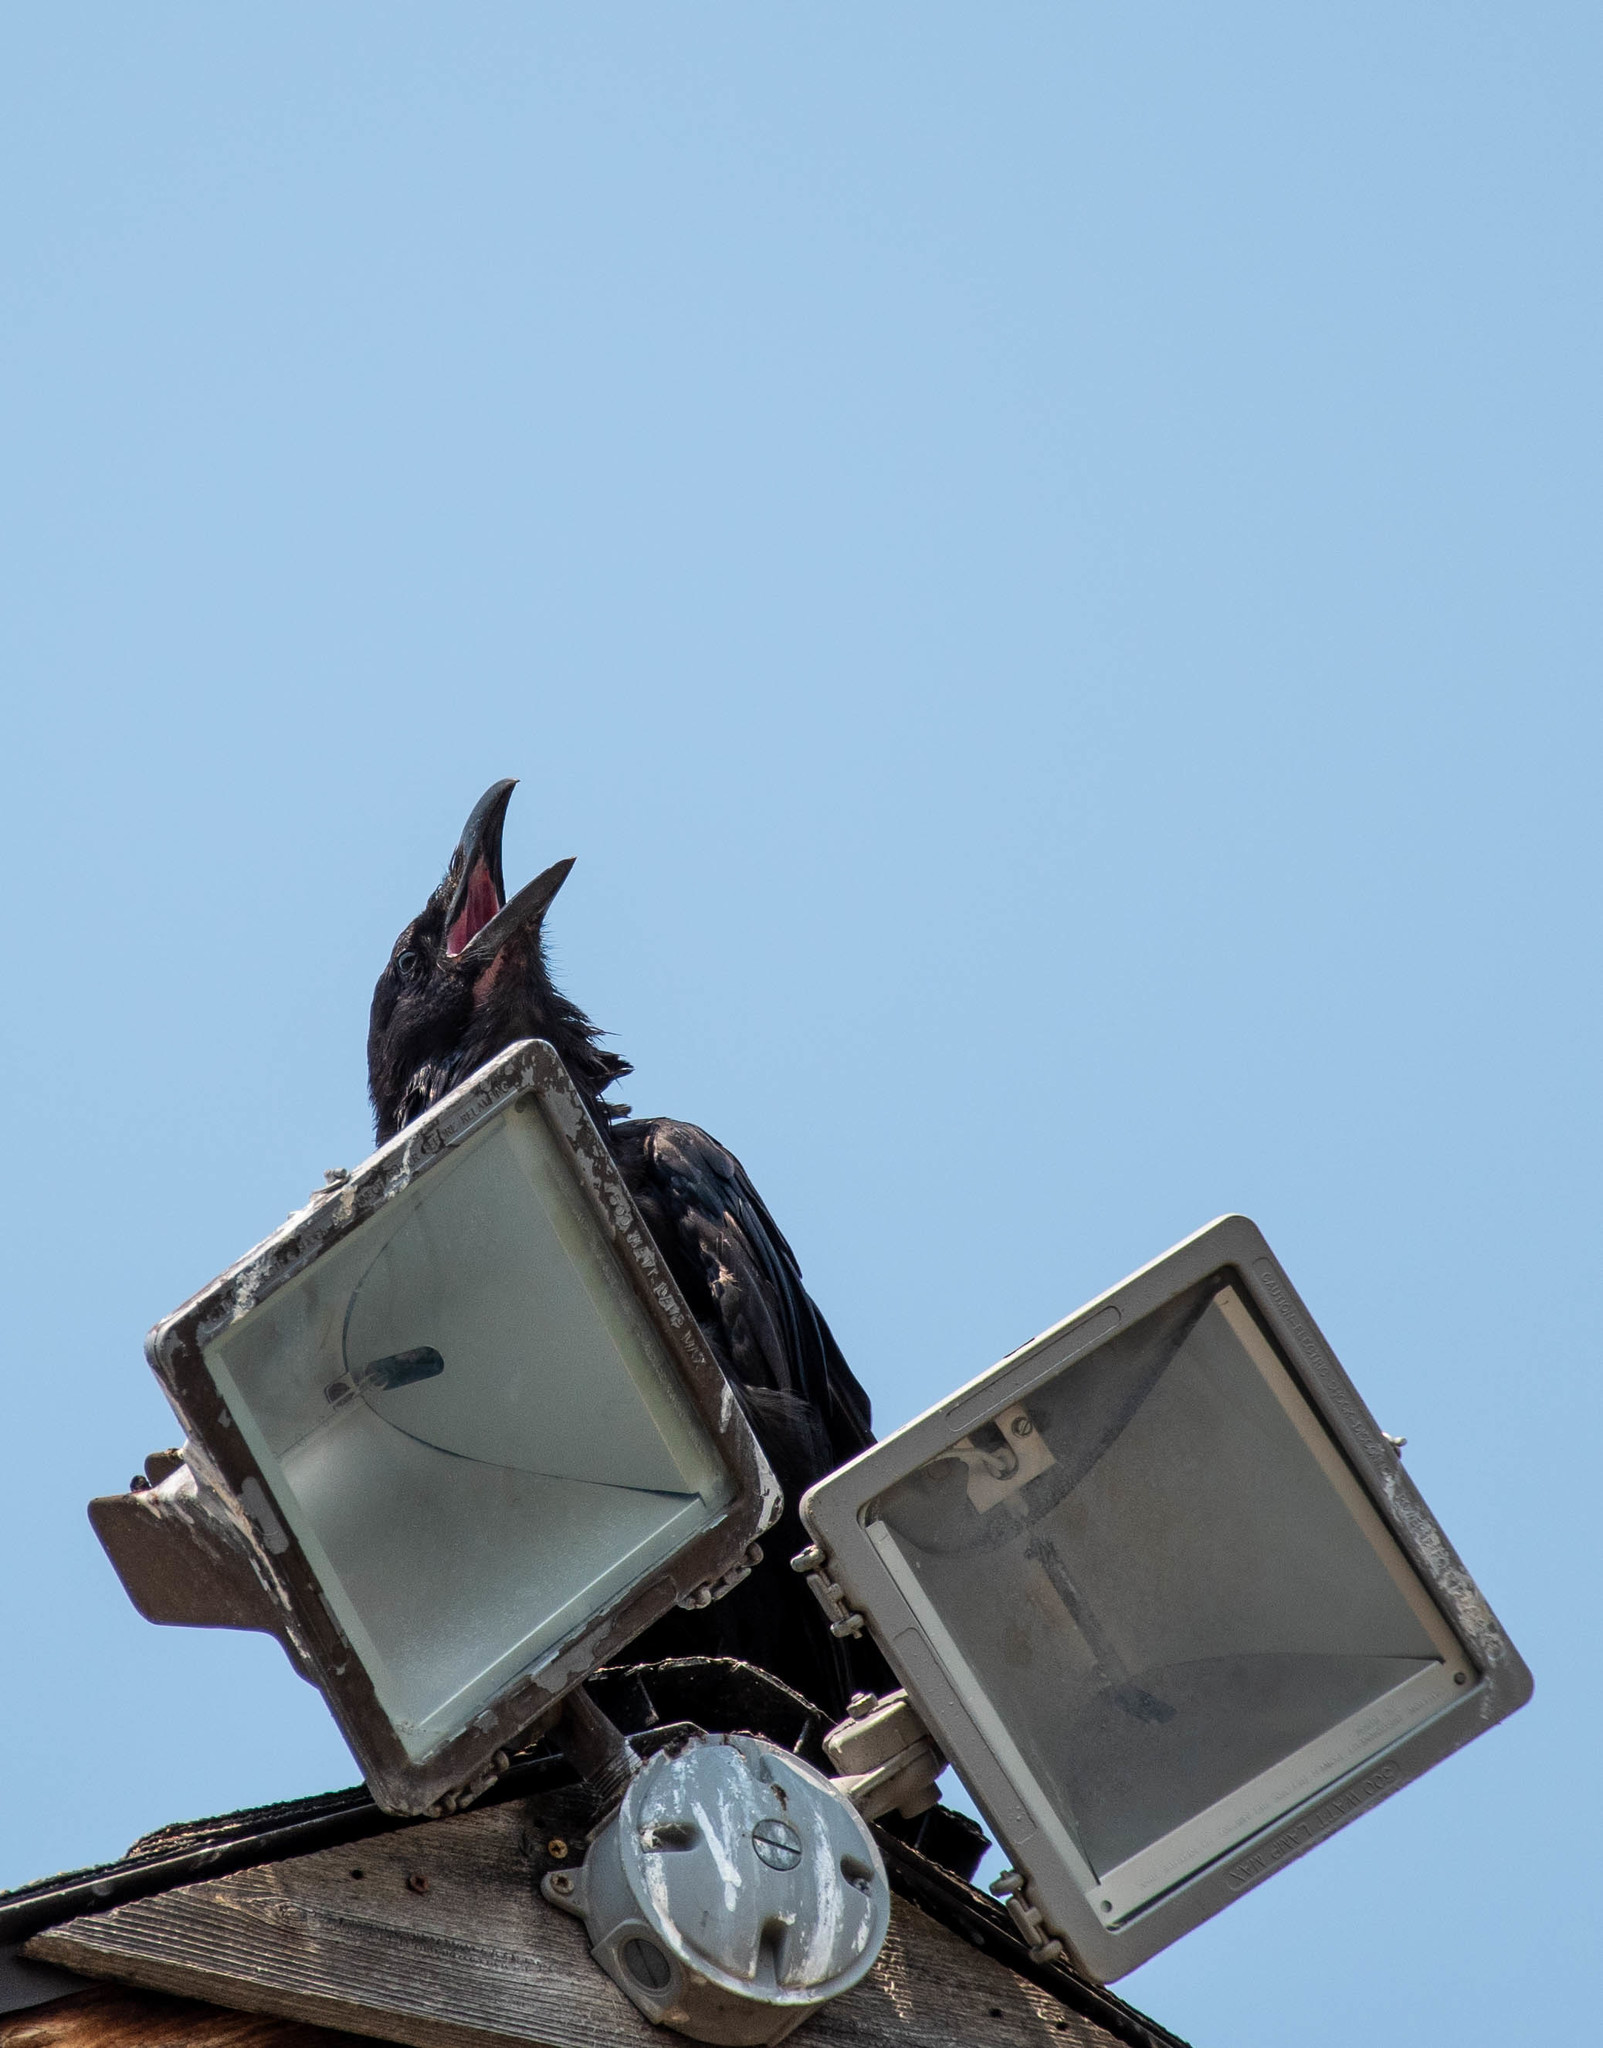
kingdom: Animalia
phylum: Chordata
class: Aves
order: Passeriformes
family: Corvidae
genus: Corvus
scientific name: Corvus corax
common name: Common raven
